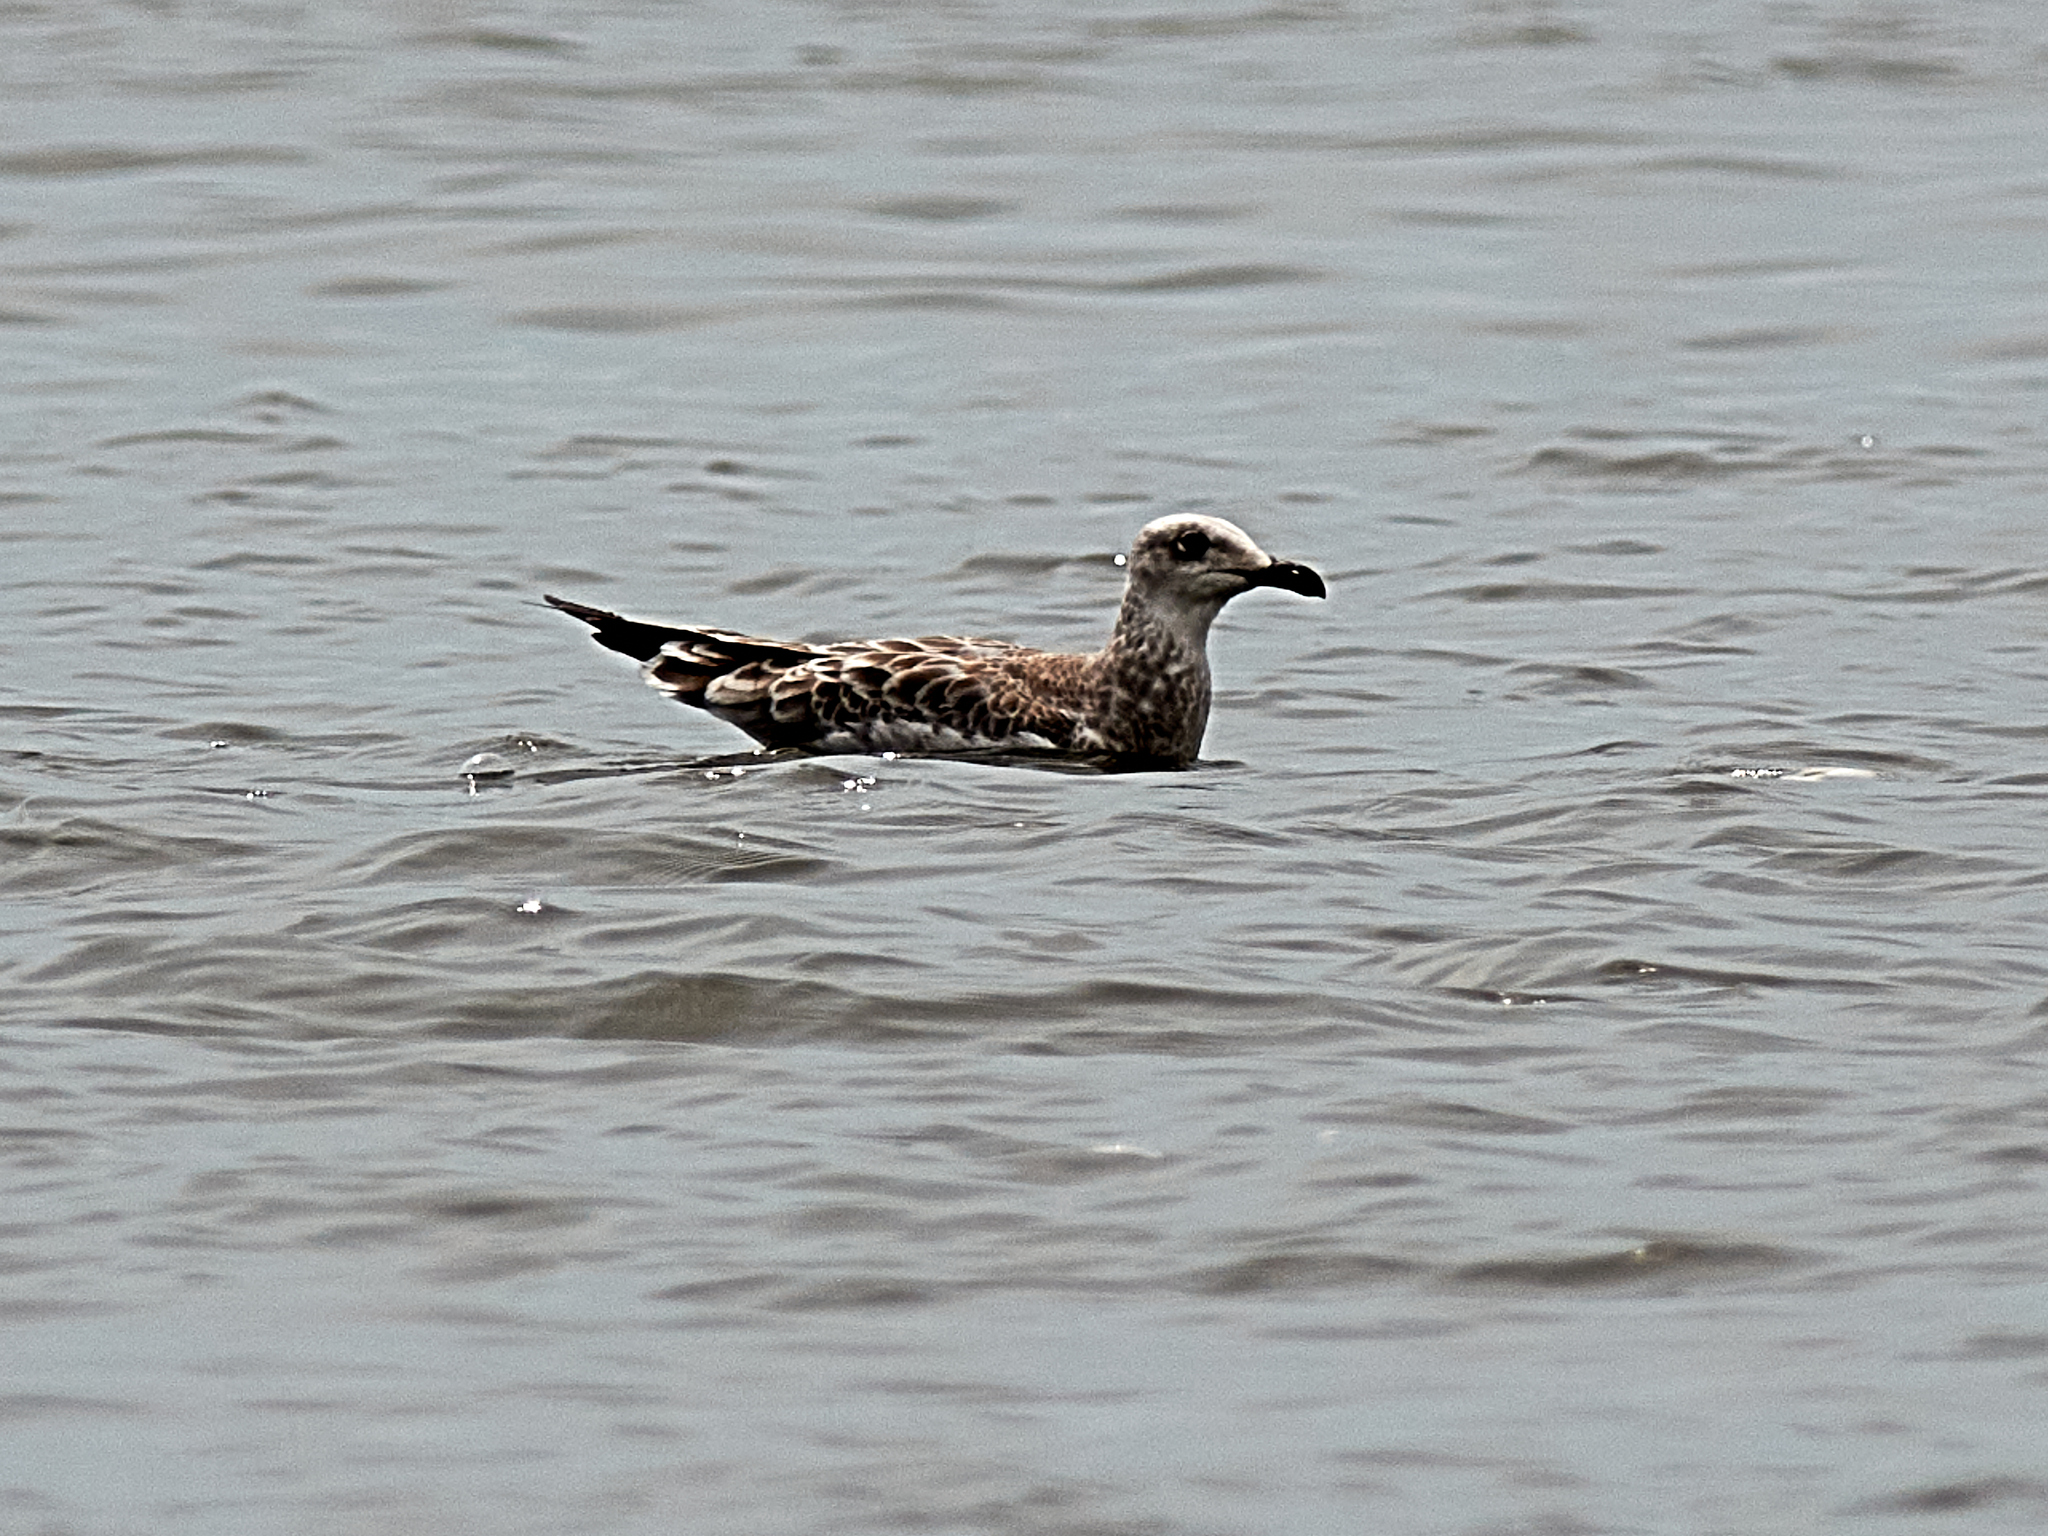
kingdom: Animalia
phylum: Chordata
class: Aves
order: Charadriiformes
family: Laridae
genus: Ichthyaetus
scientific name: Ichthyaetus ichthyaetus
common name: Pallas's gull
